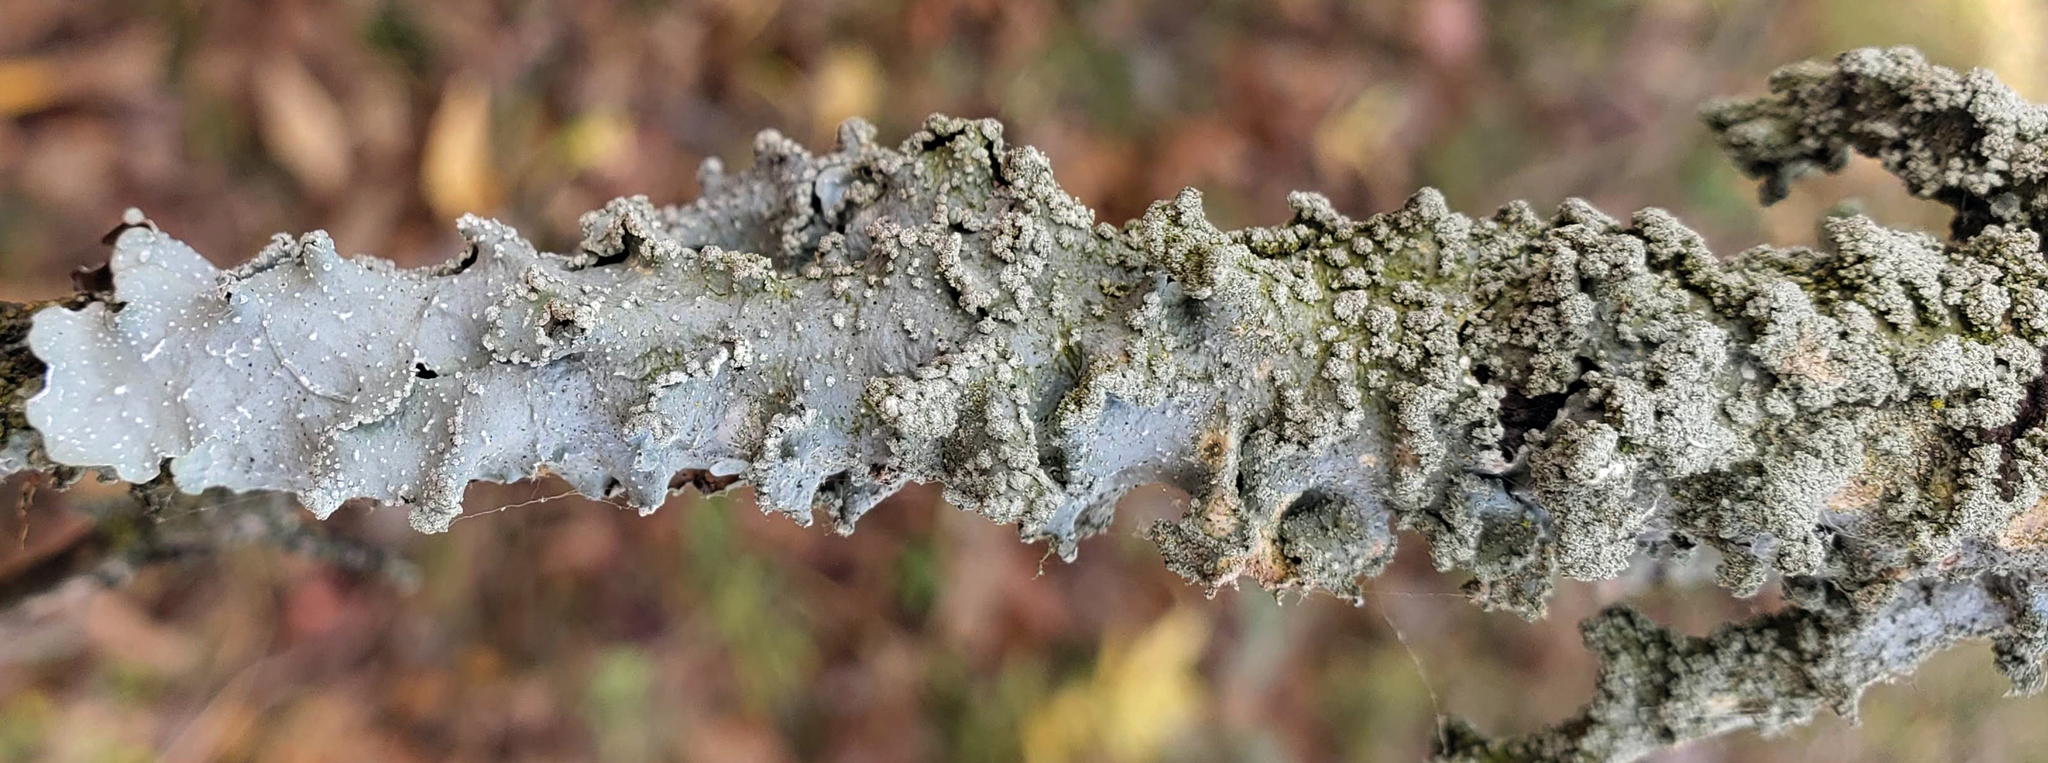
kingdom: Fungi
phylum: Ascomycota
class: Lecanoromycetes
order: Lecanorales
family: Parmeliaceae
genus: Punctelia
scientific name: Punctelia caseana
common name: Moondust speckled lichen
